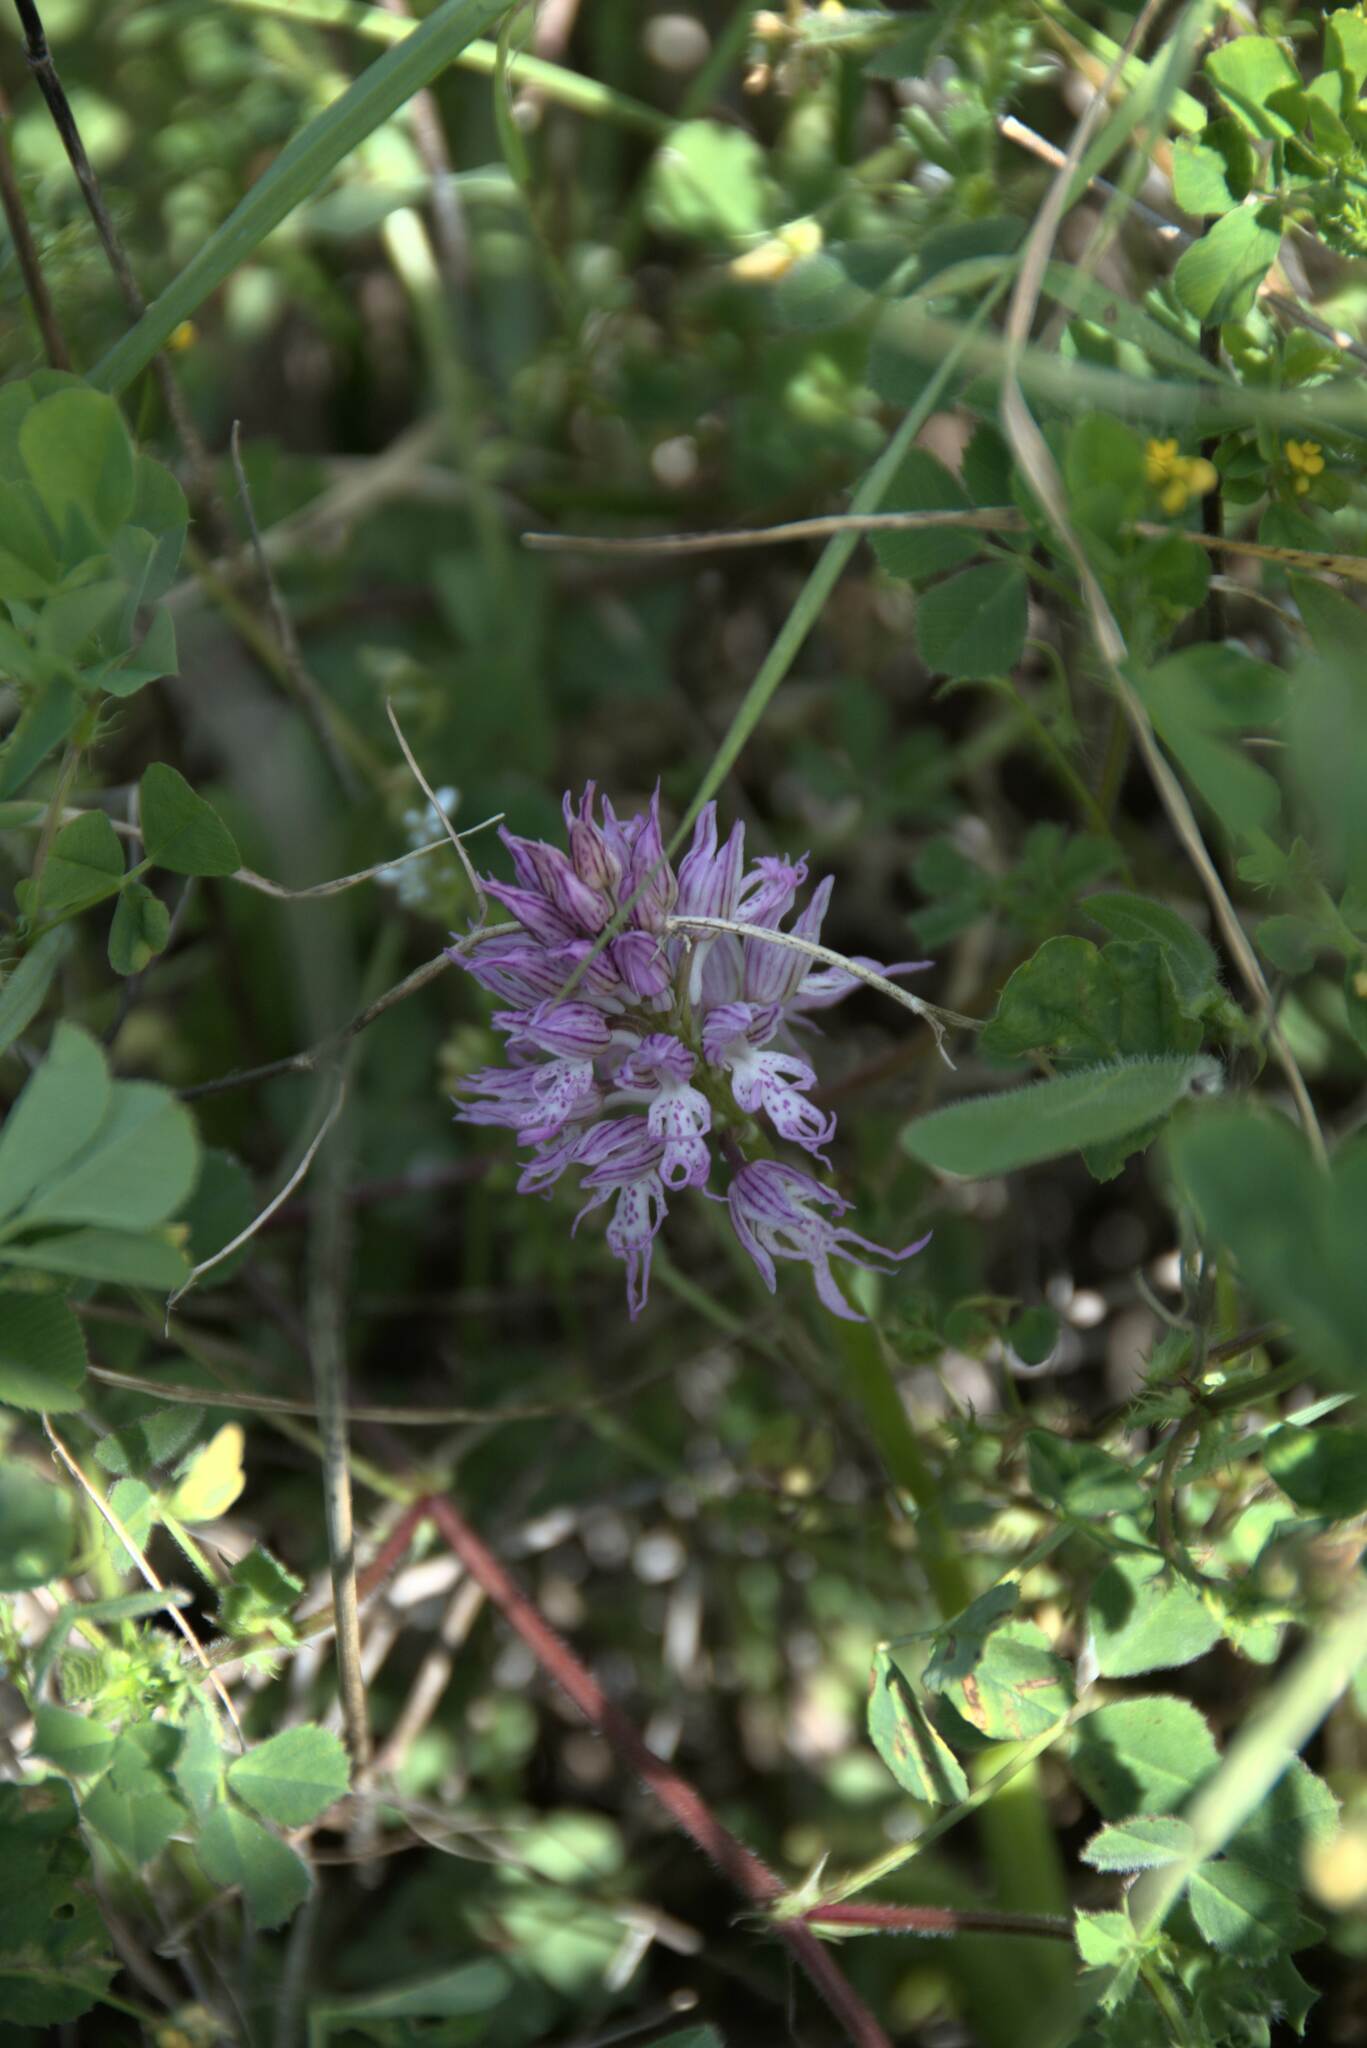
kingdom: Plantae
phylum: Tracheophyta
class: Liliopsida
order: Asparagales
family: Orchidaceae
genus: Orchis
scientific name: Orchis italica
